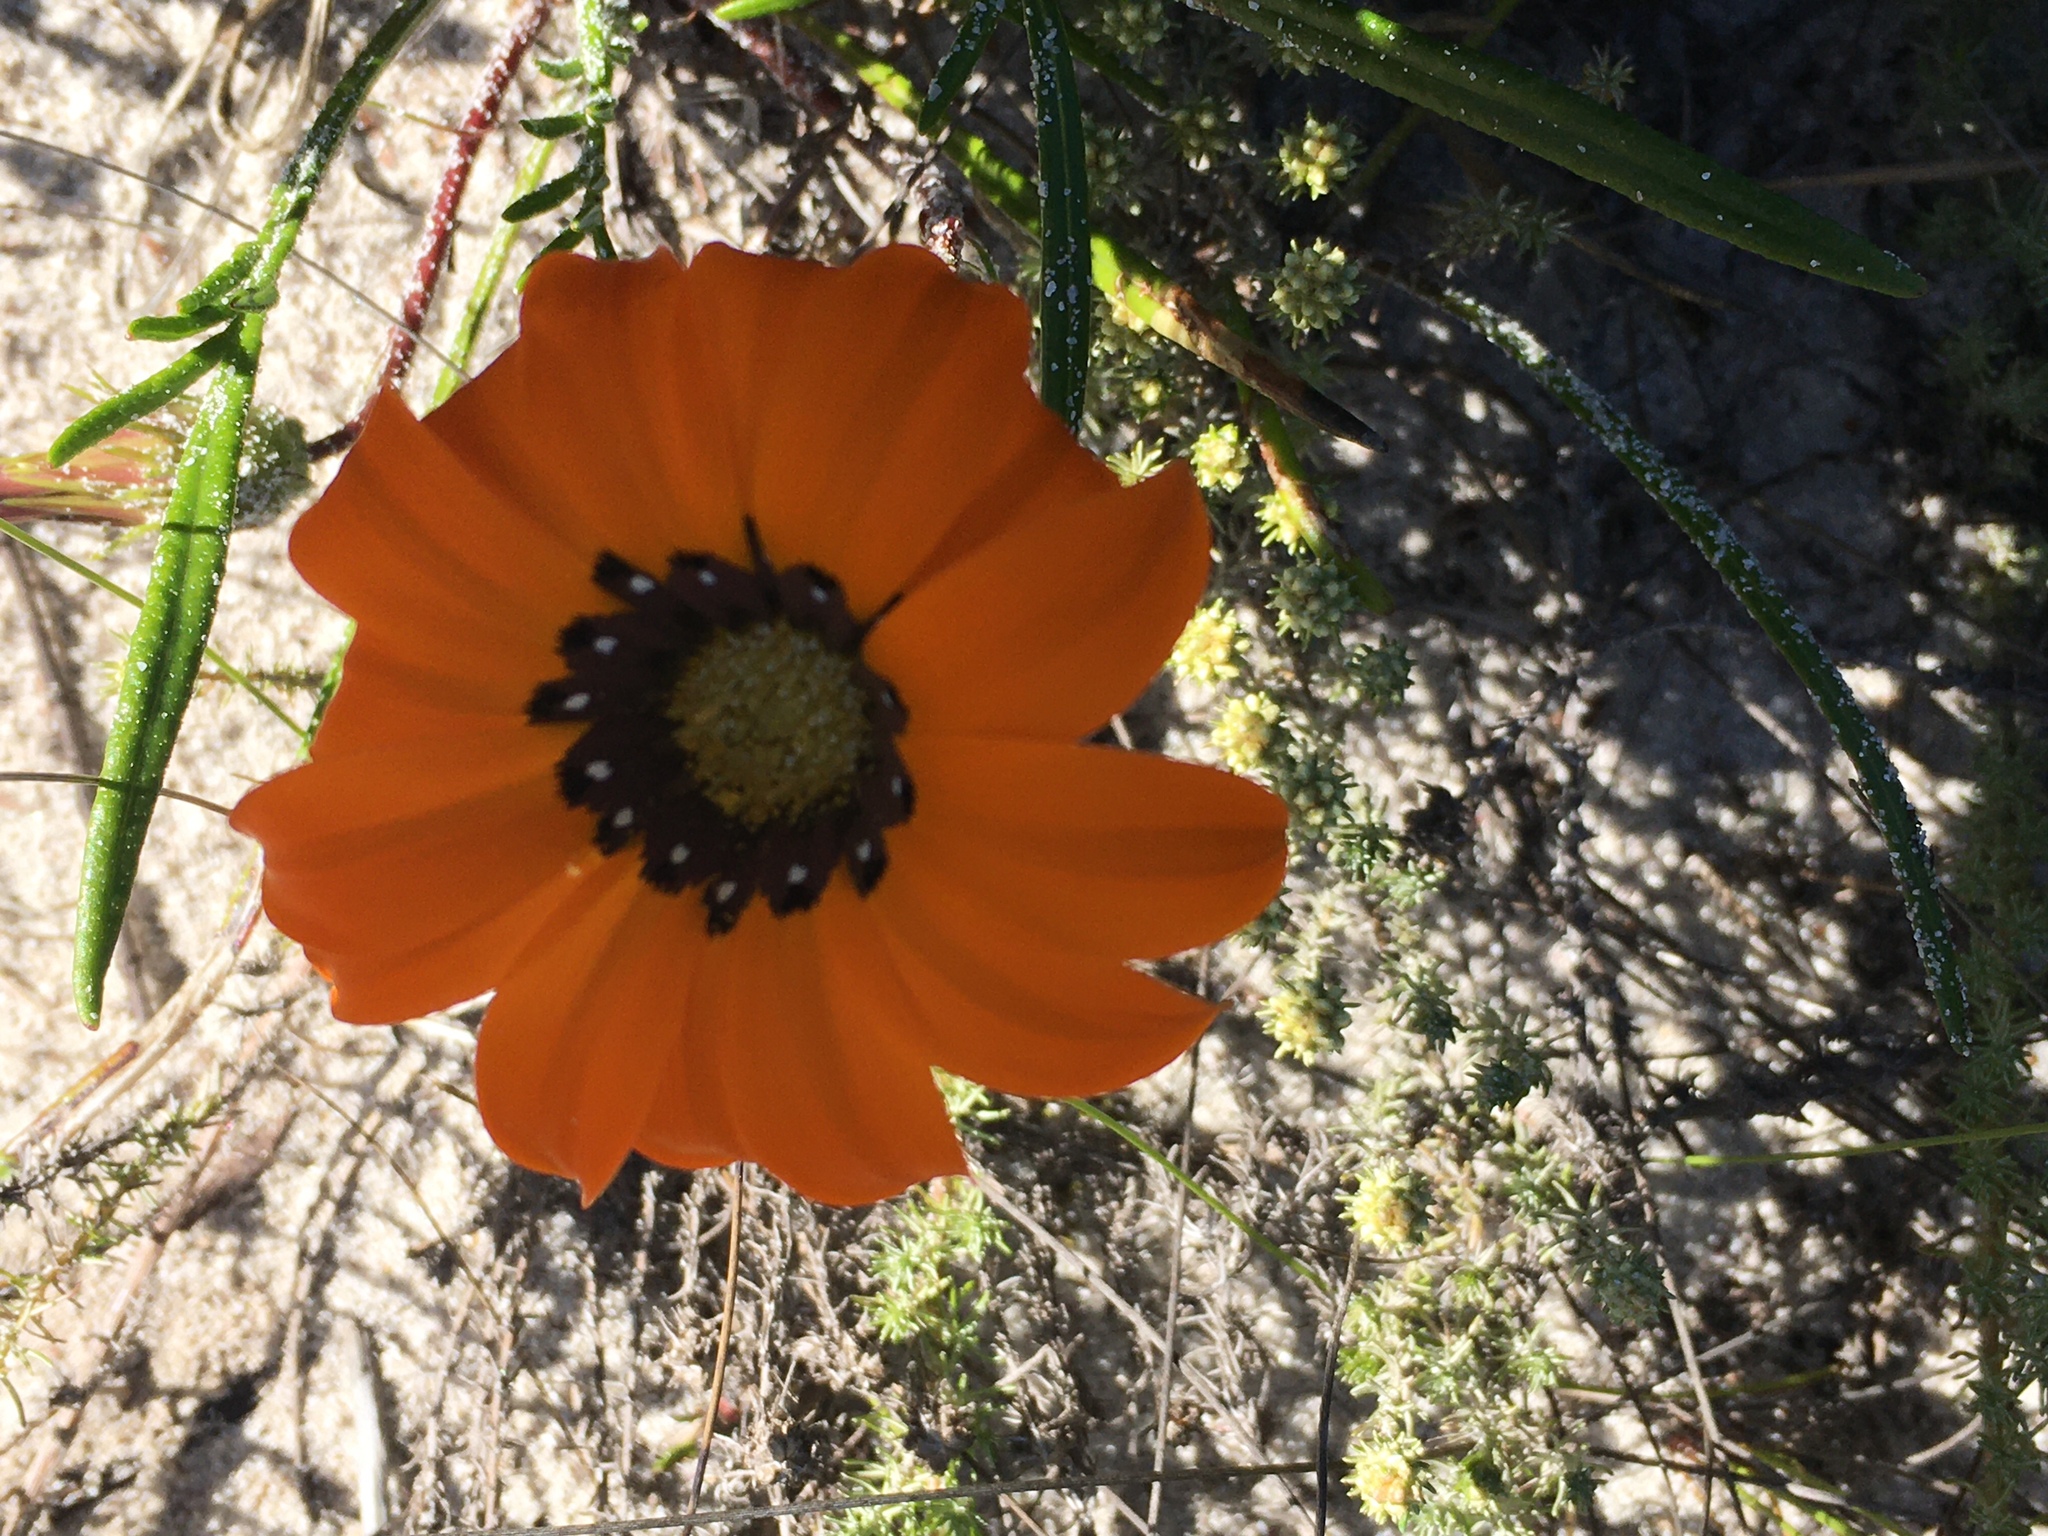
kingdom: Plantae
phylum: Tracheophyta
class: Magnoliopsida
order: Asterales
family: Asteraceae
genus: Gazania
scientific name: Gazania pectinata
